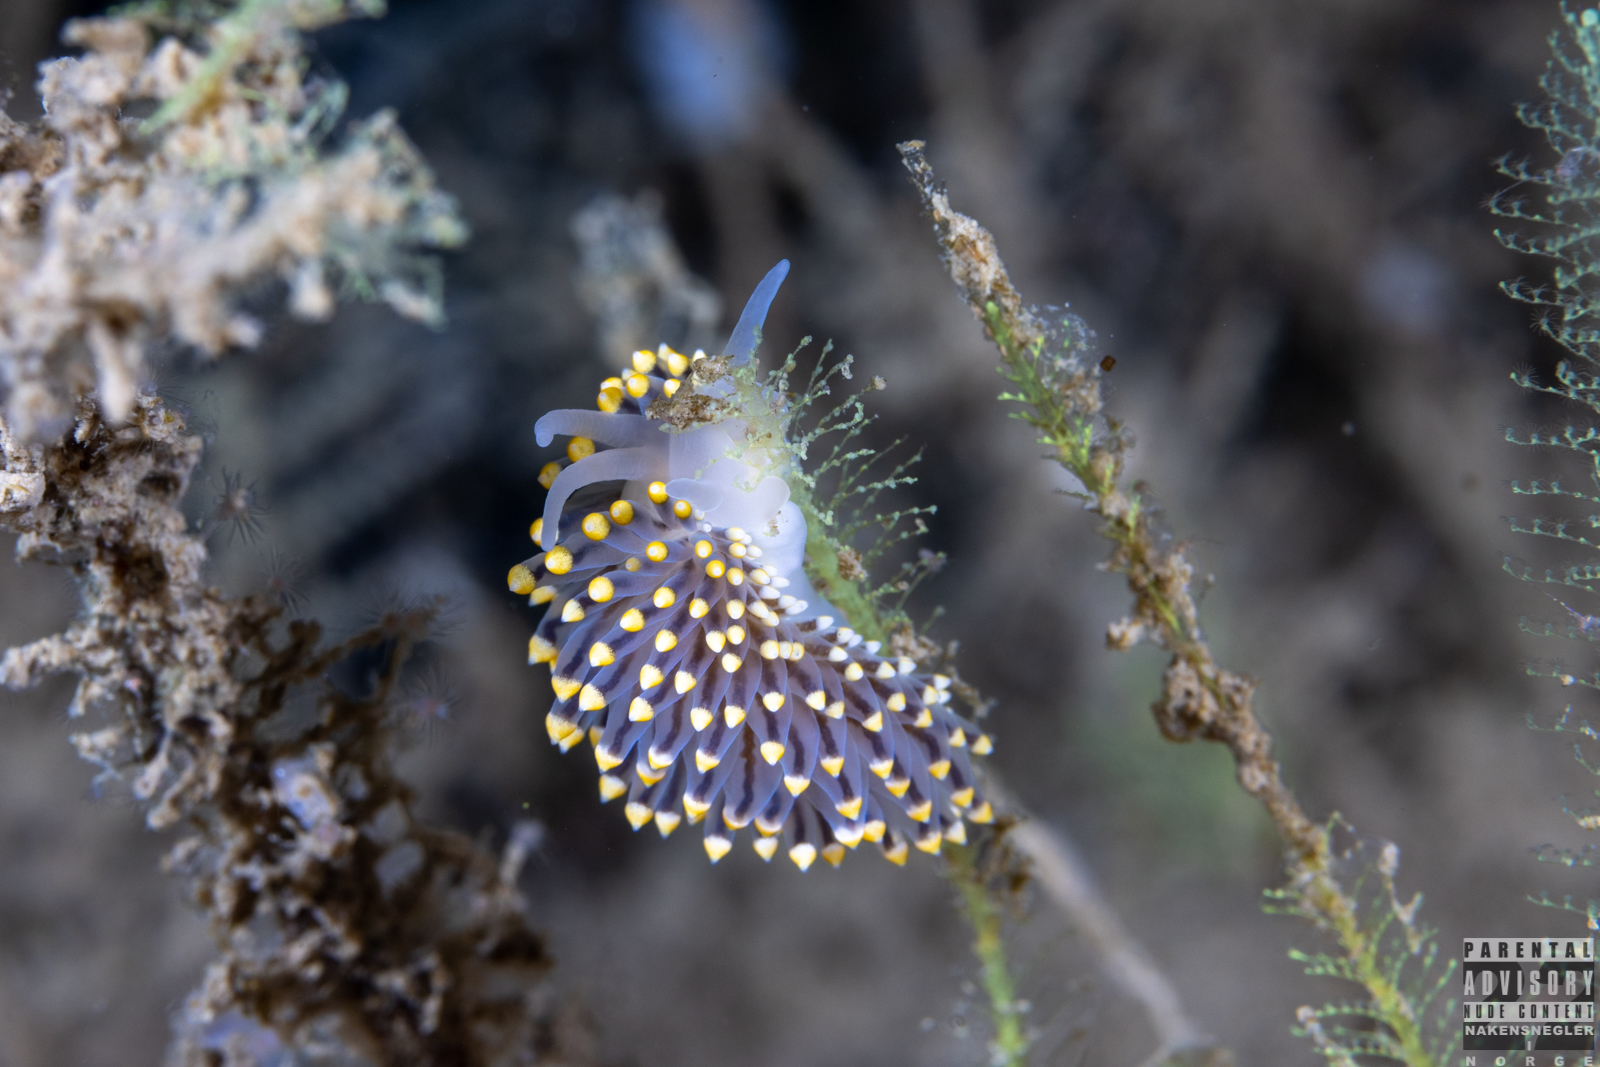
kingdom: Animalia
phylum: Mollusca
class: Gastropoda
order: Nudibranchia
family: Eubranchidae
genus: Eubranchus
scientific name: Eubranchus tricolor
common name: Painted balloon aeolis
